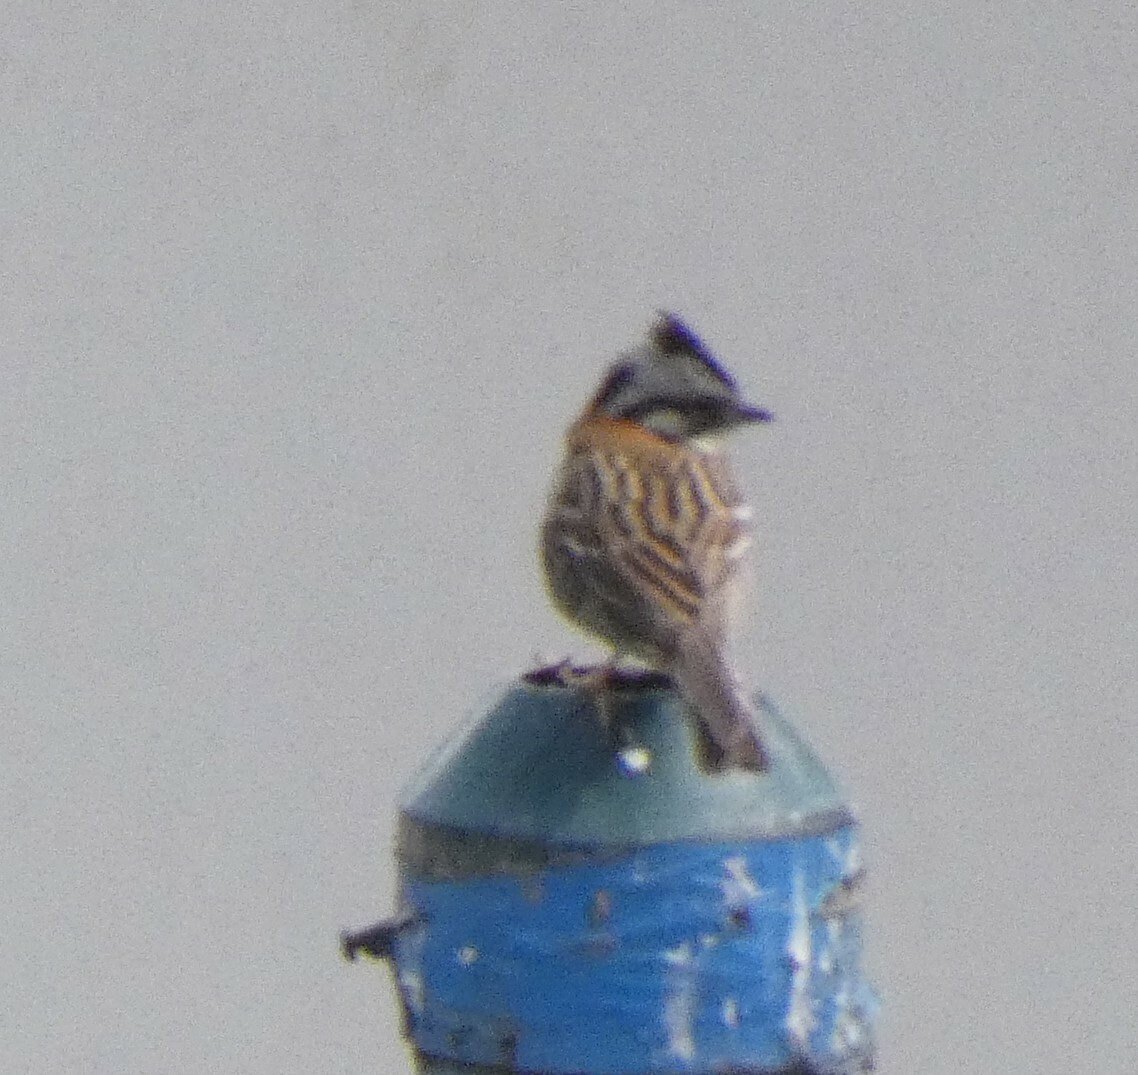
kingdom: Animalia
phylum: Chordata
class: Aves
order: Passeriformes
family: Passerellidae
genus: Zonotrichia
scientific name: Zonotrichia capensis
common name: Rufous-collared sparrow
